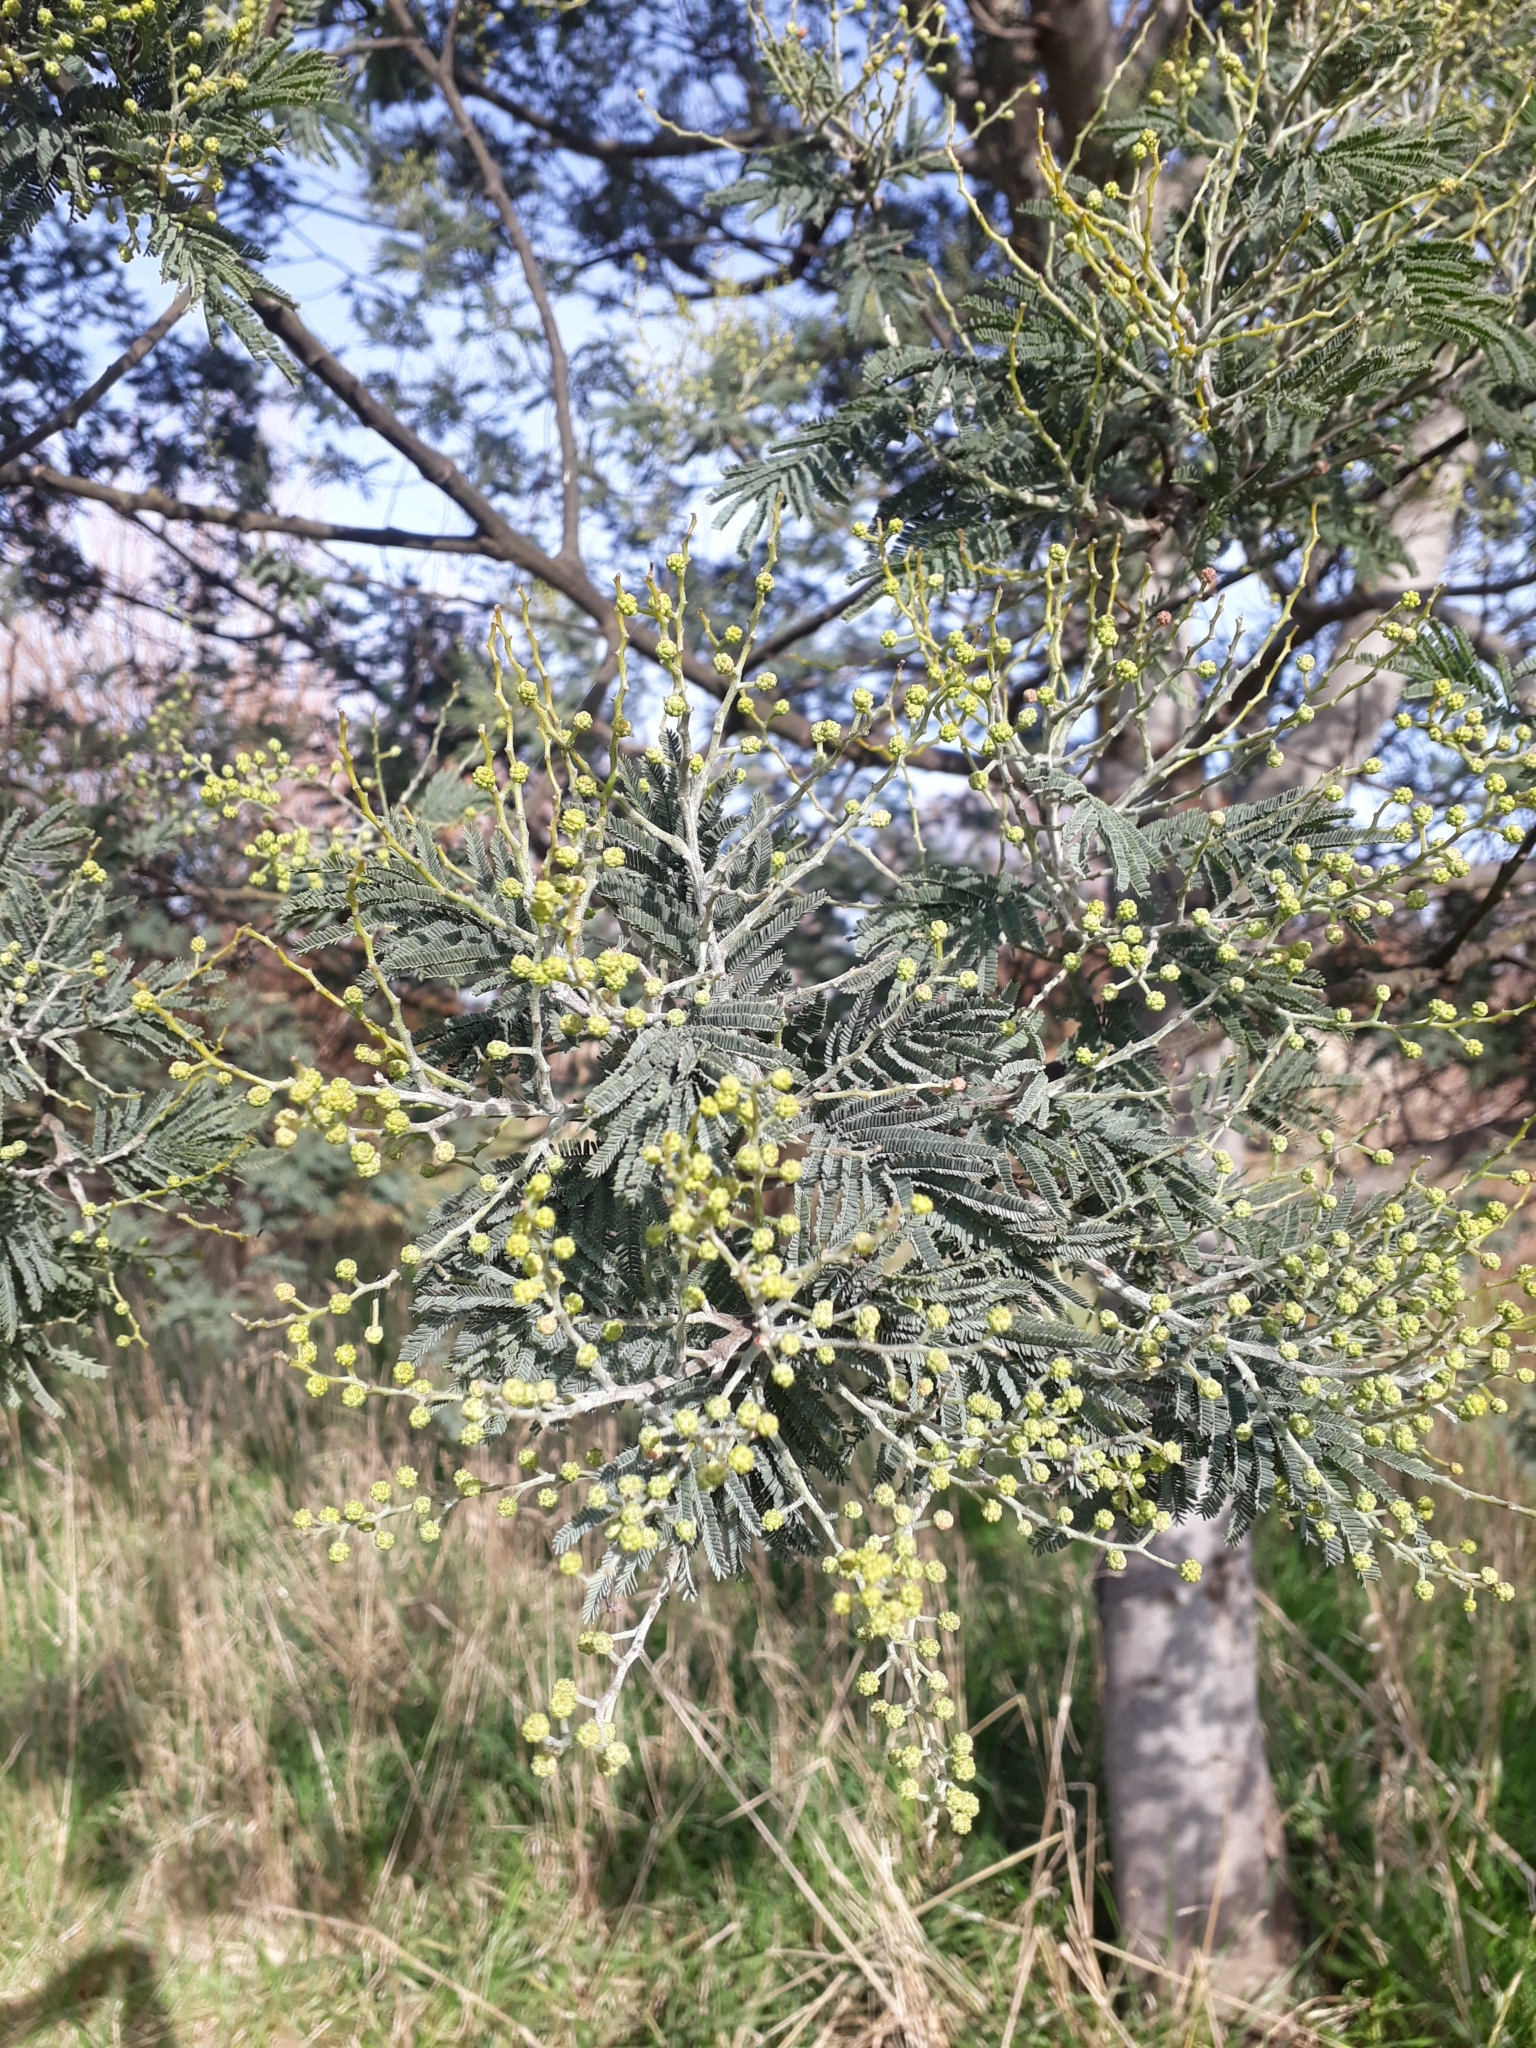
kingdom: Plantae
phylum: Tracheophyta
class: Magnoliopsida
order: Fabales
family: Fabaceae
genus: Acacia
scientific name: Acacia dealbata
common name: Silver wattle
